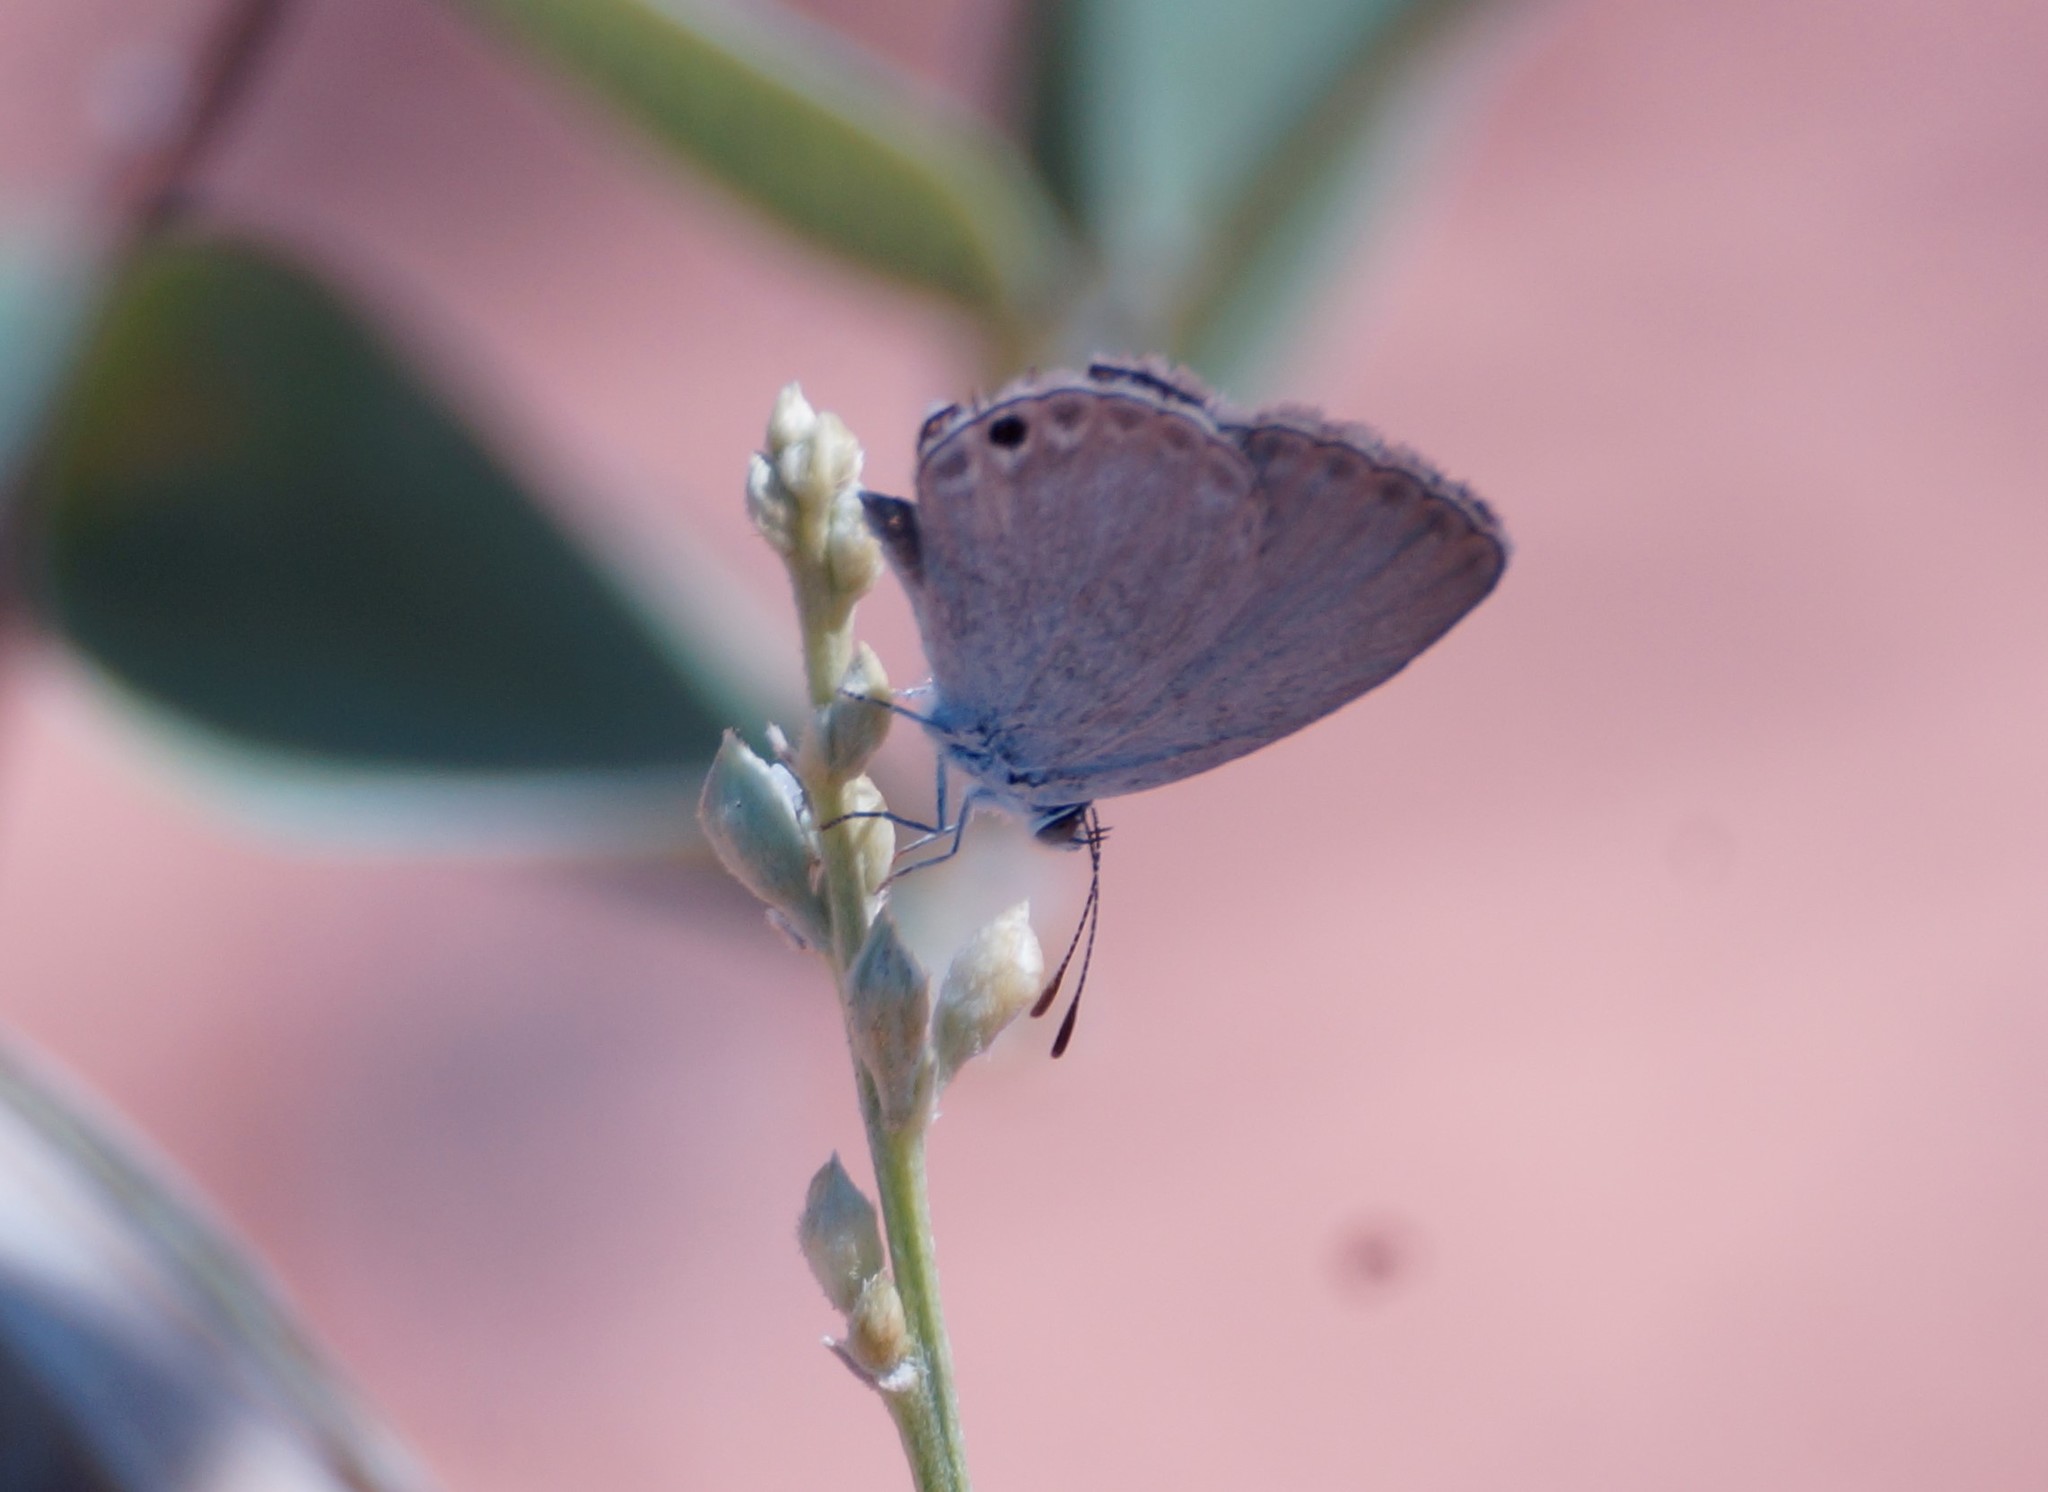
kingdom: Animalia
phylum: Arthropoda
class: Insecta
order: Lepidoptera
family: Lycaenidae
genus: Cupido
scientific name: Cupido nisa
